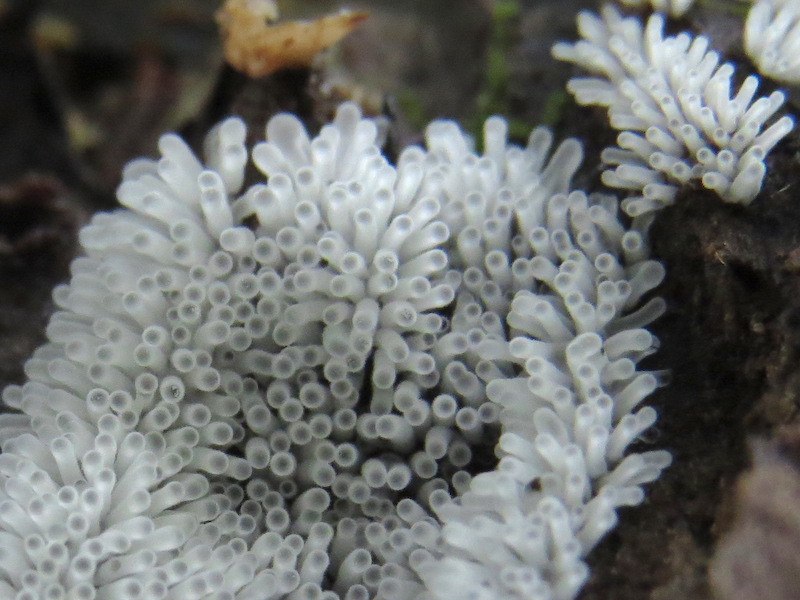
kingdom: Protozoa
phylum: Mycetozoa
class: Protosteliomycetes
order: Ceratiomyxales
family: Ceratiomyxaceae
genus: Ceratiomyxa
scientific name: Ceratiomyxa fruticulosa
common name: Honeycomb coral slime mold
